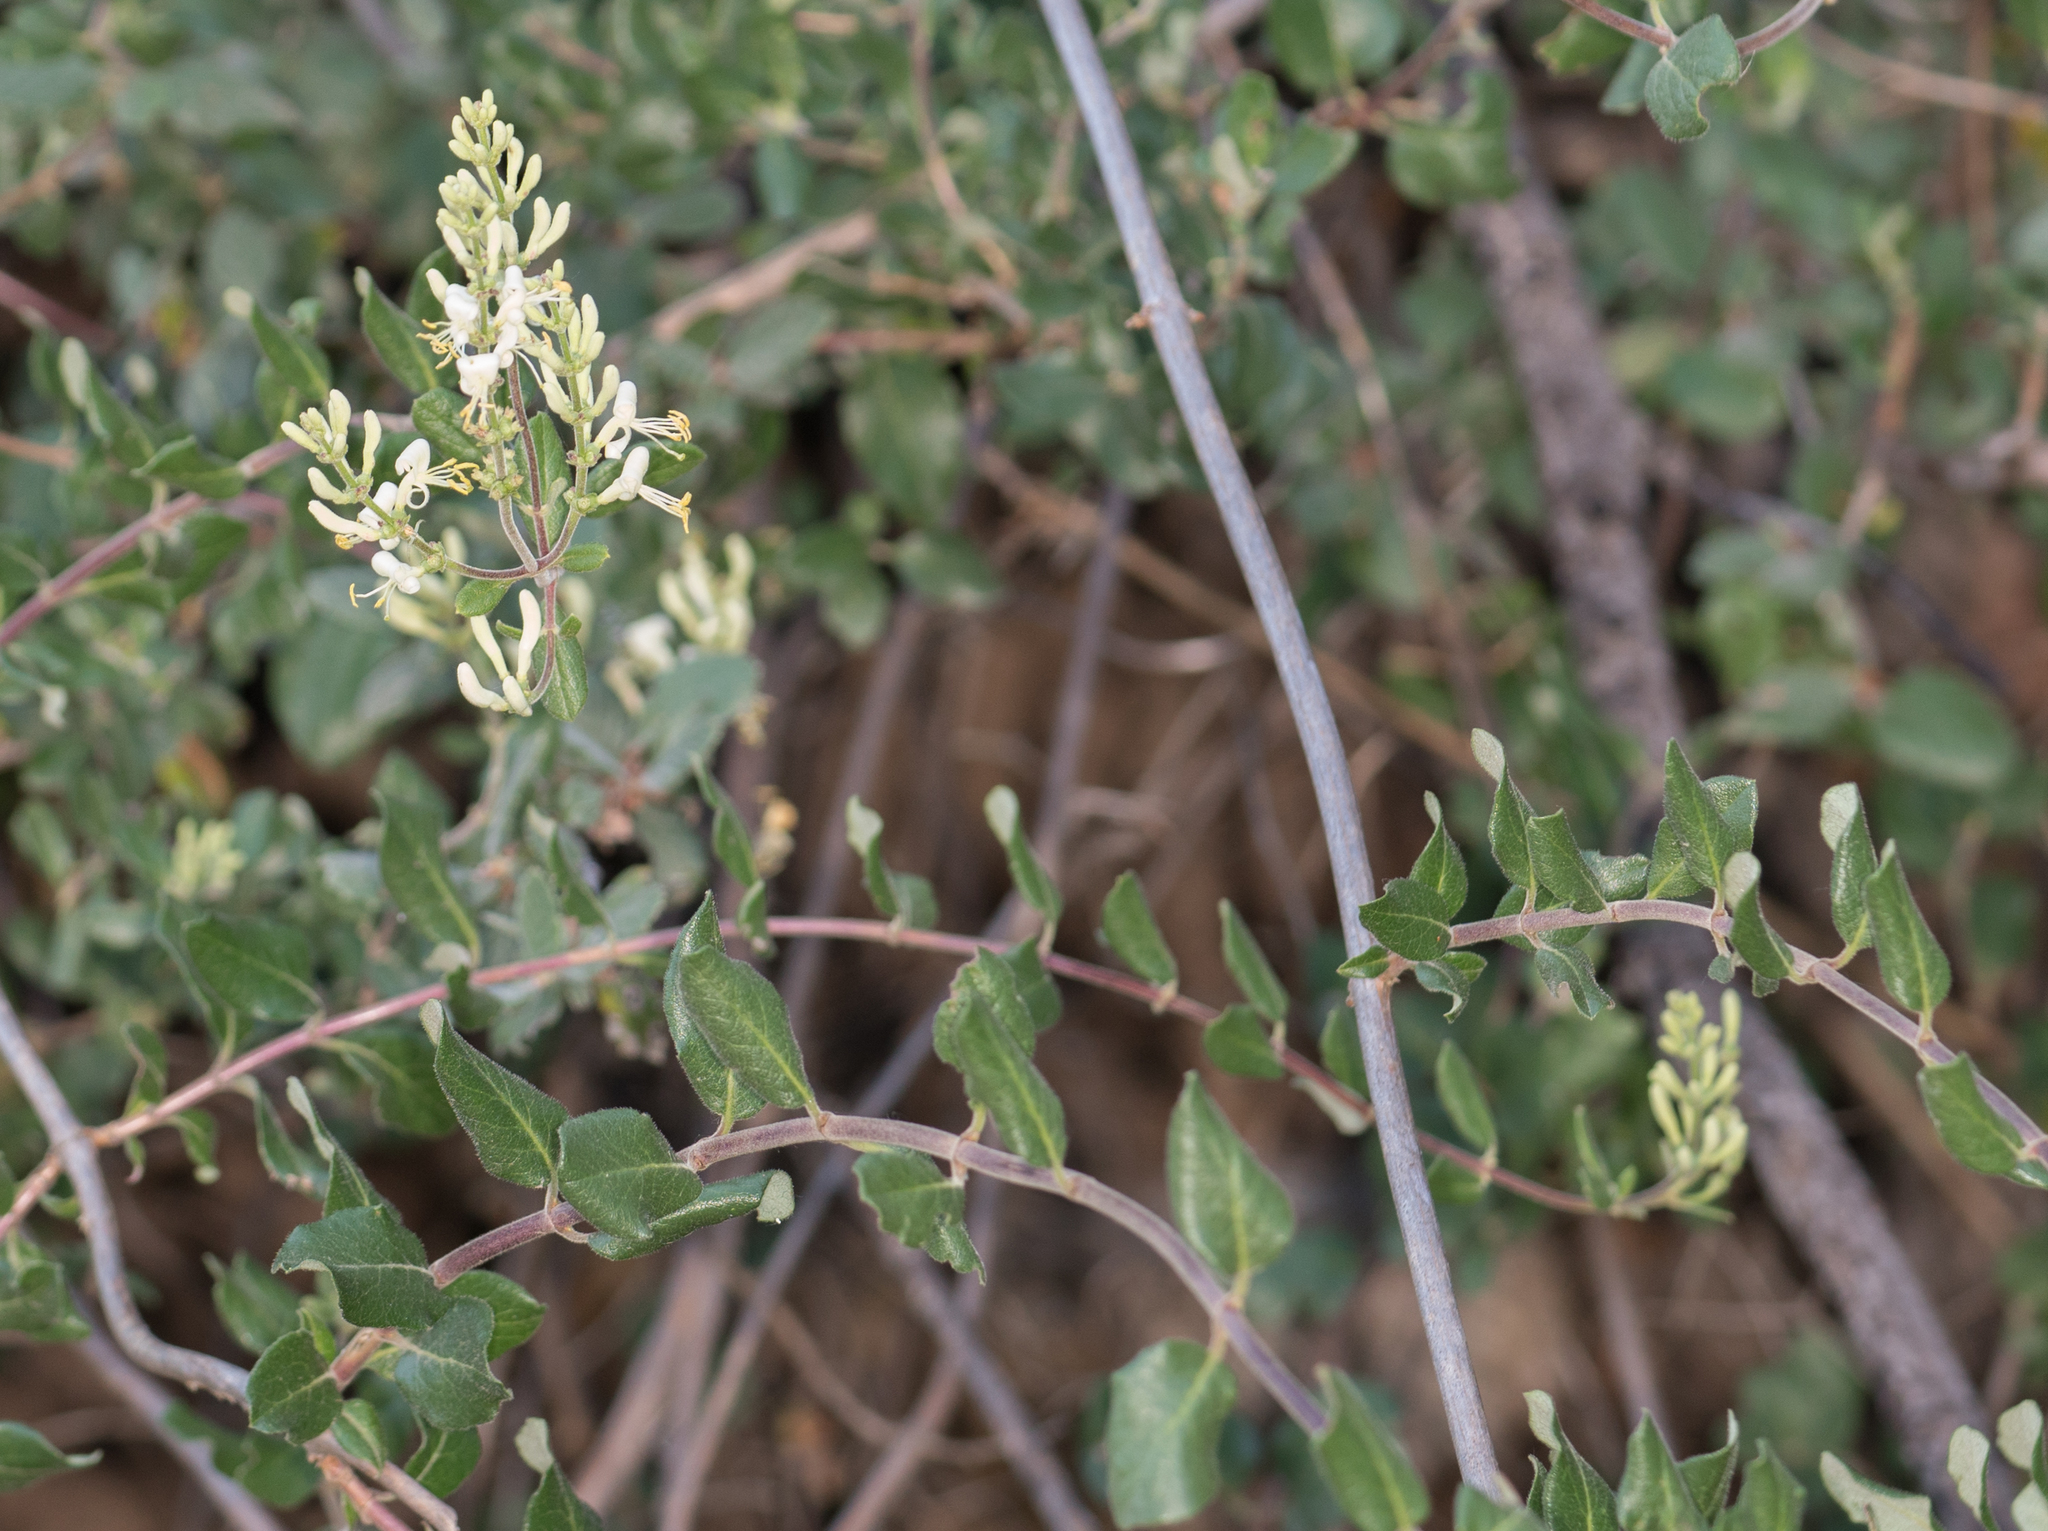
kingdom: Plantae
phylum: Tracheophyta
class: Magnoliopsida
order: Dipsacales
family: Caprifoliaceae
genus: Lonicera
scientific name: Lonicera subspicata
